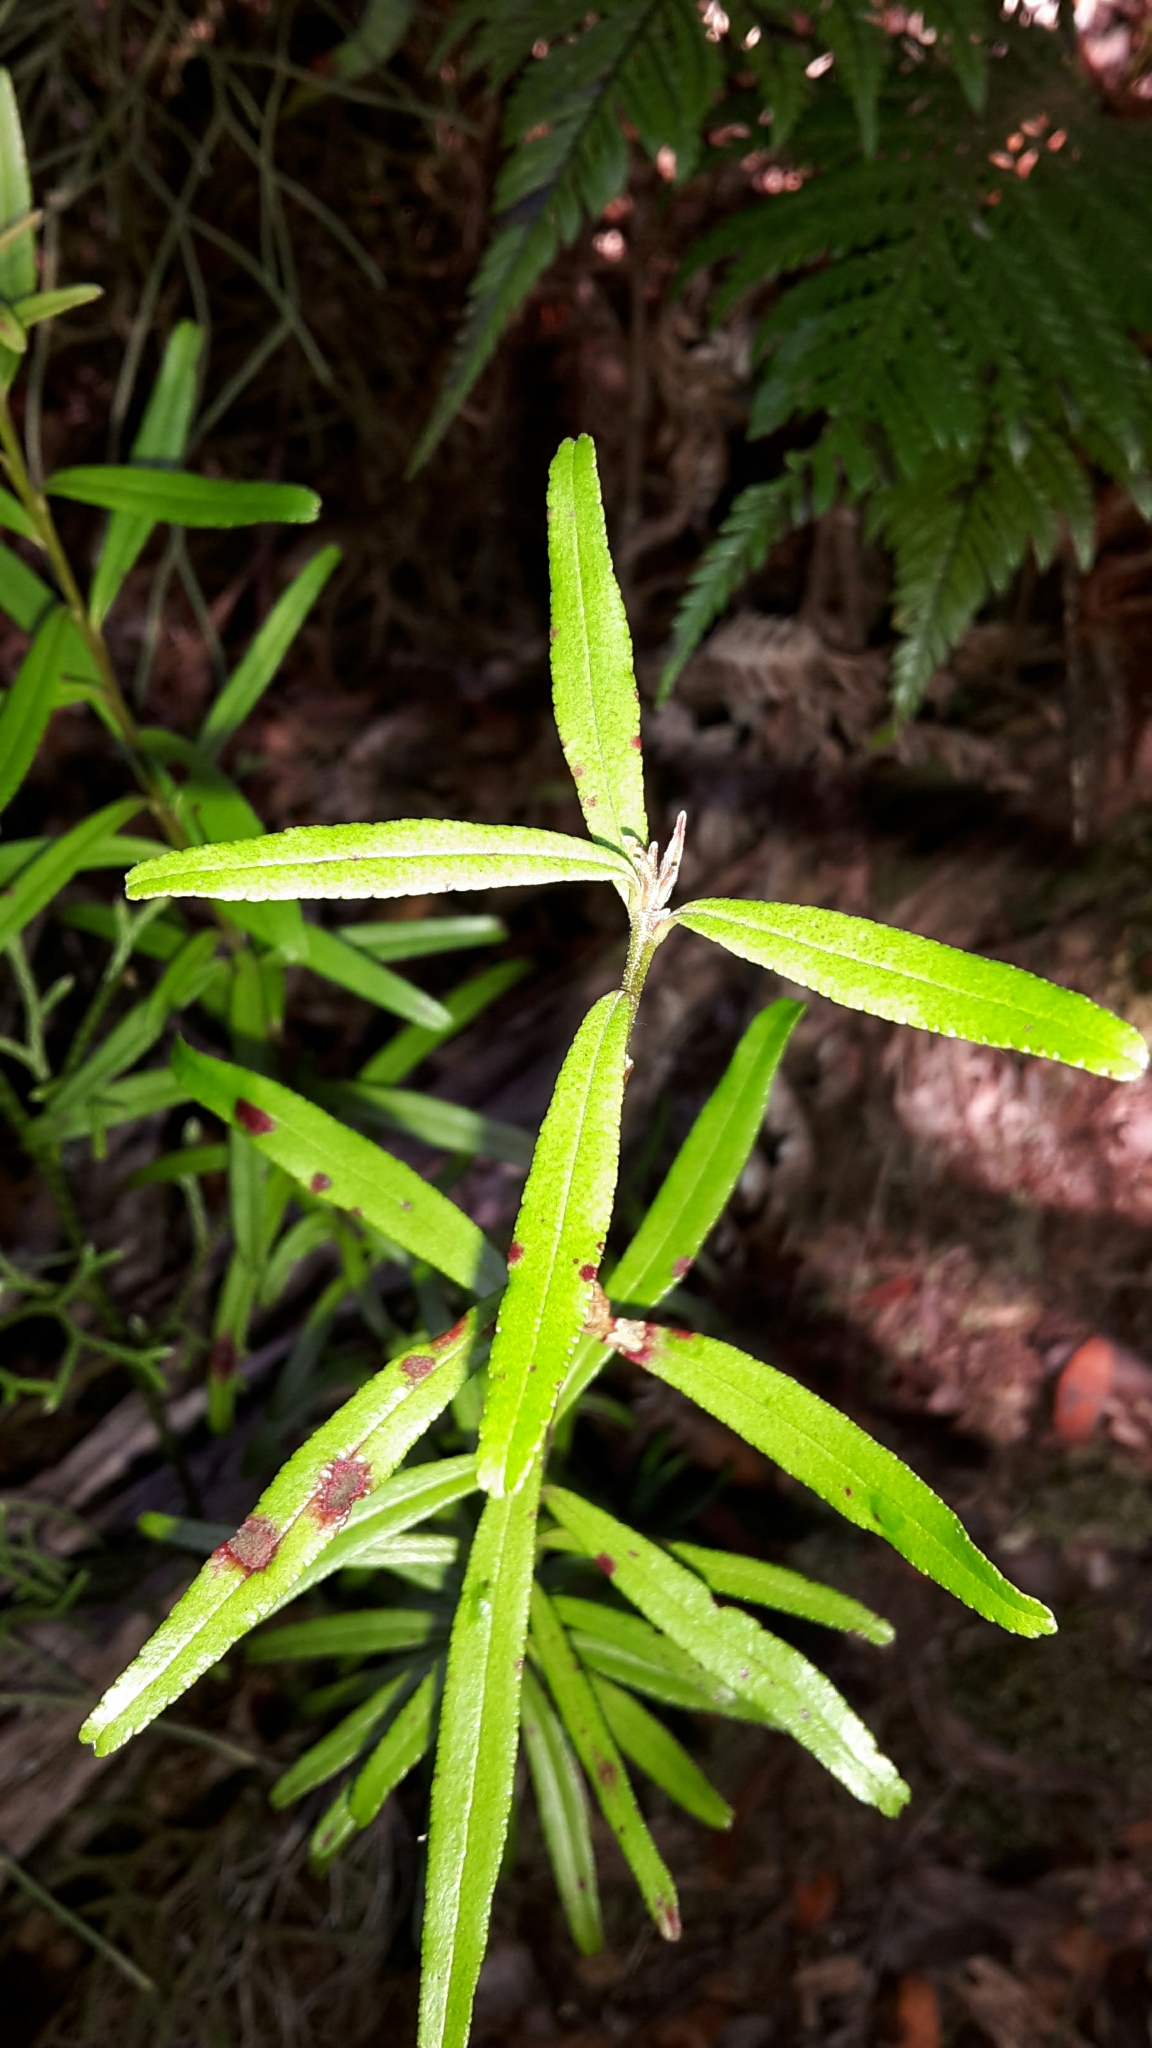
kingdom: Plantae
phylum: Tracheophyta
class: Magnoliopsida
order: Sapindales
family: Rutaceae
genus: Leionema
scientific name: Leionema nudum
